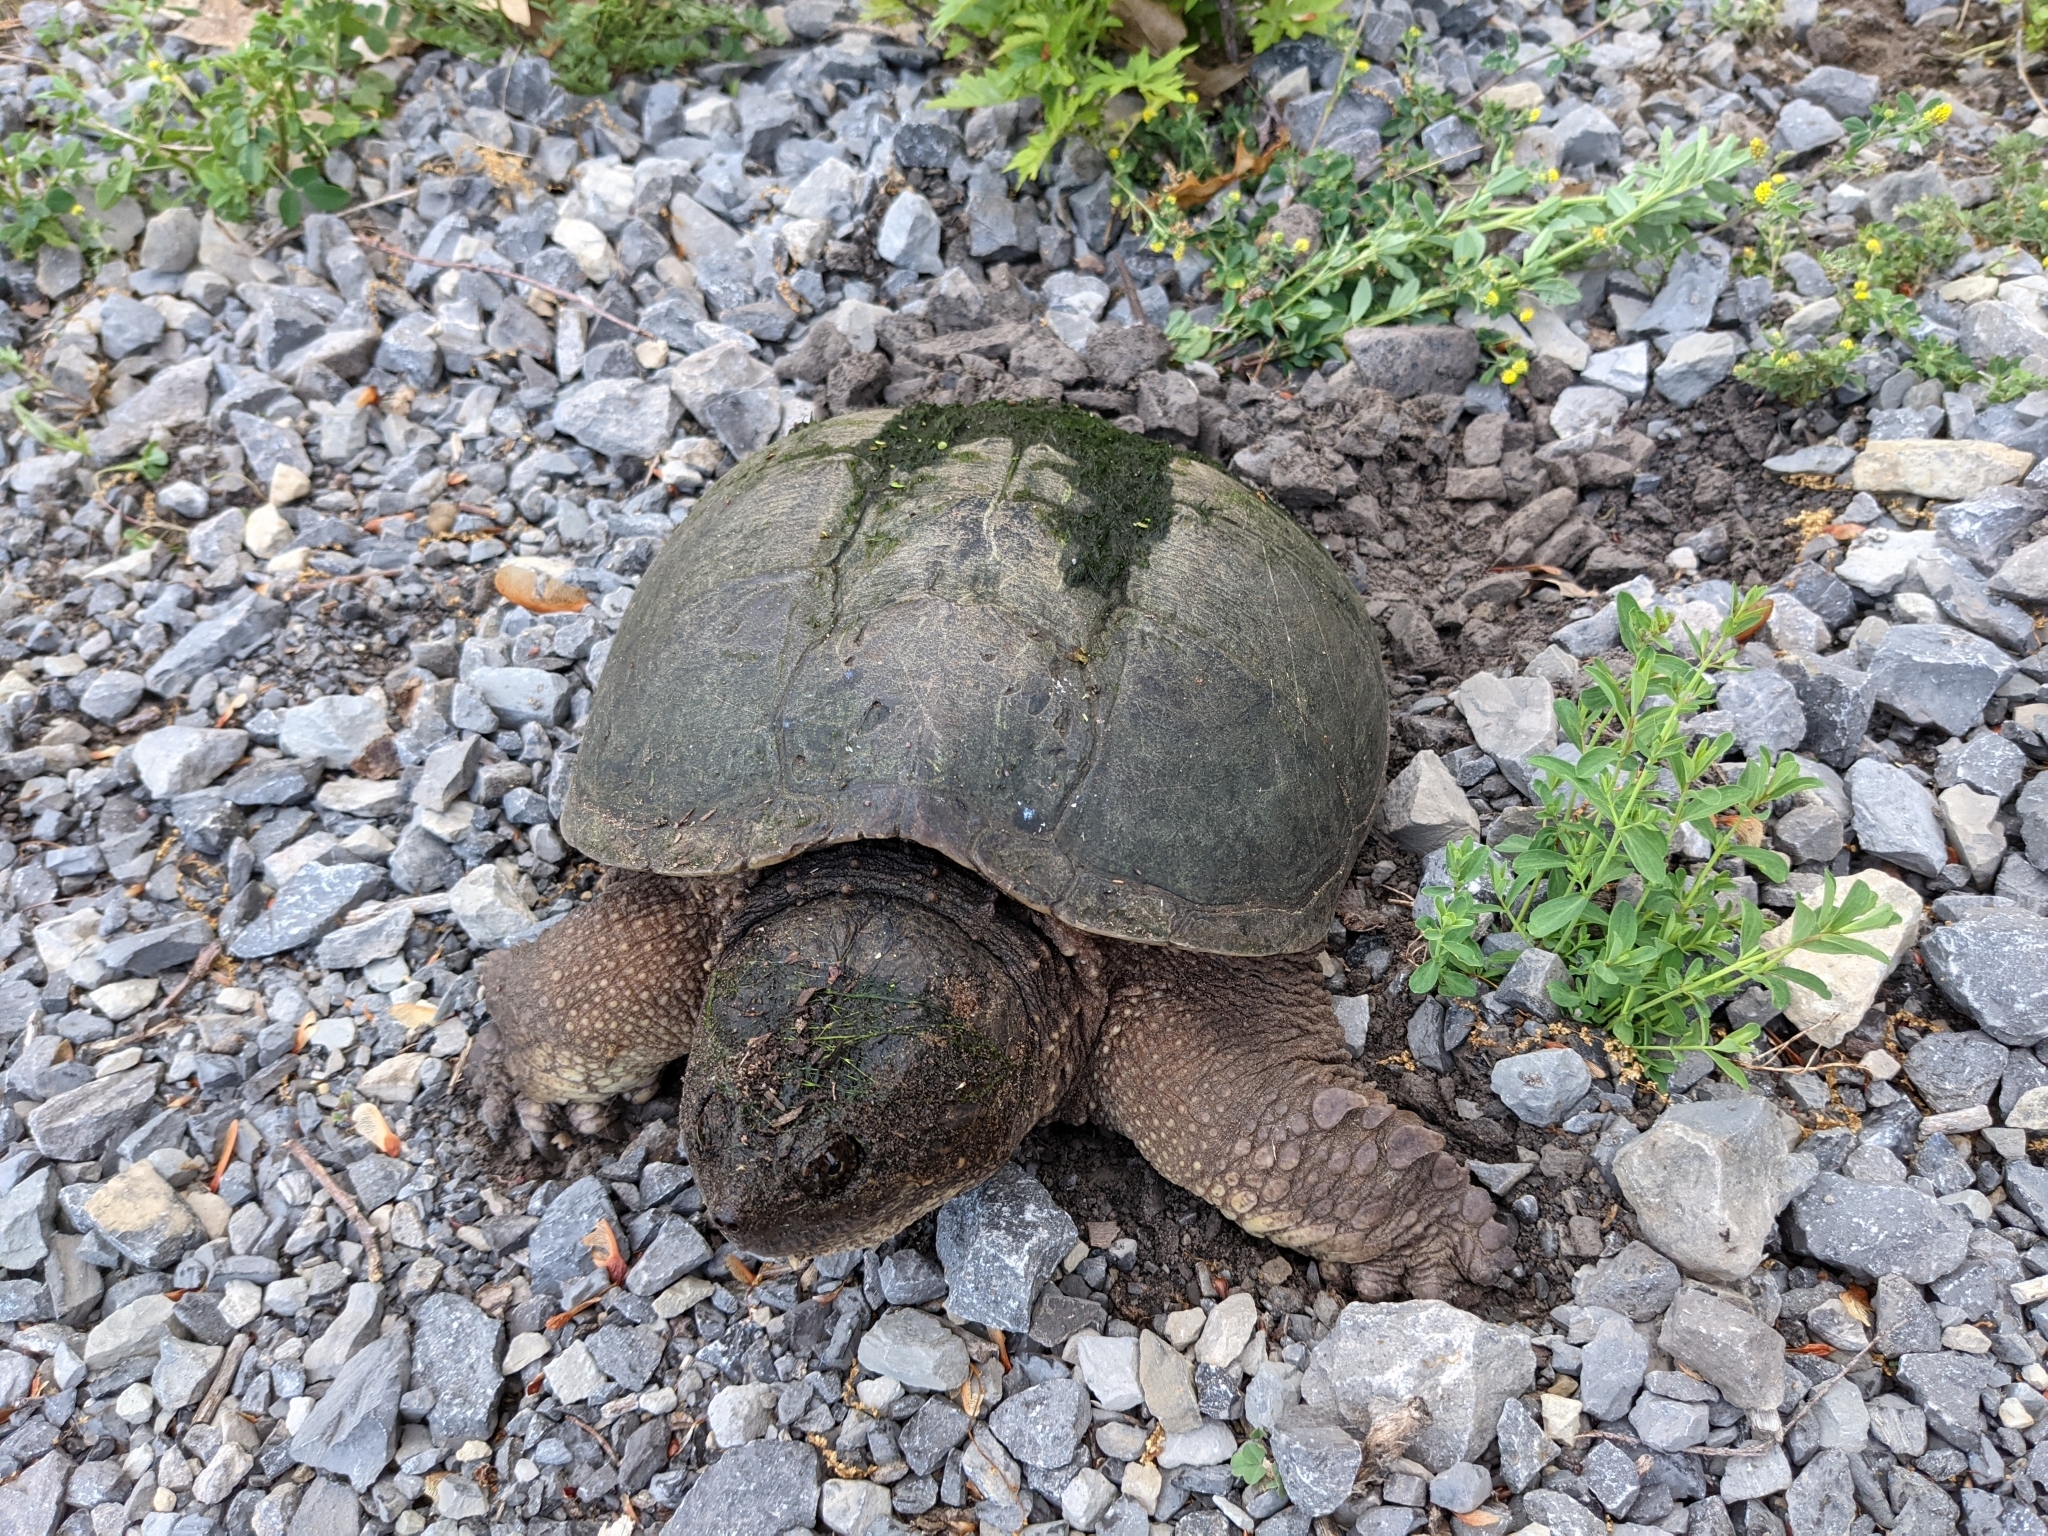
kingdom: Animalia
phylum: Chordata
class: Testudines
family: Chelydridae
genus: Chelydra
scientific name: Chelydra serpentina
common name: Common snapping turtle
